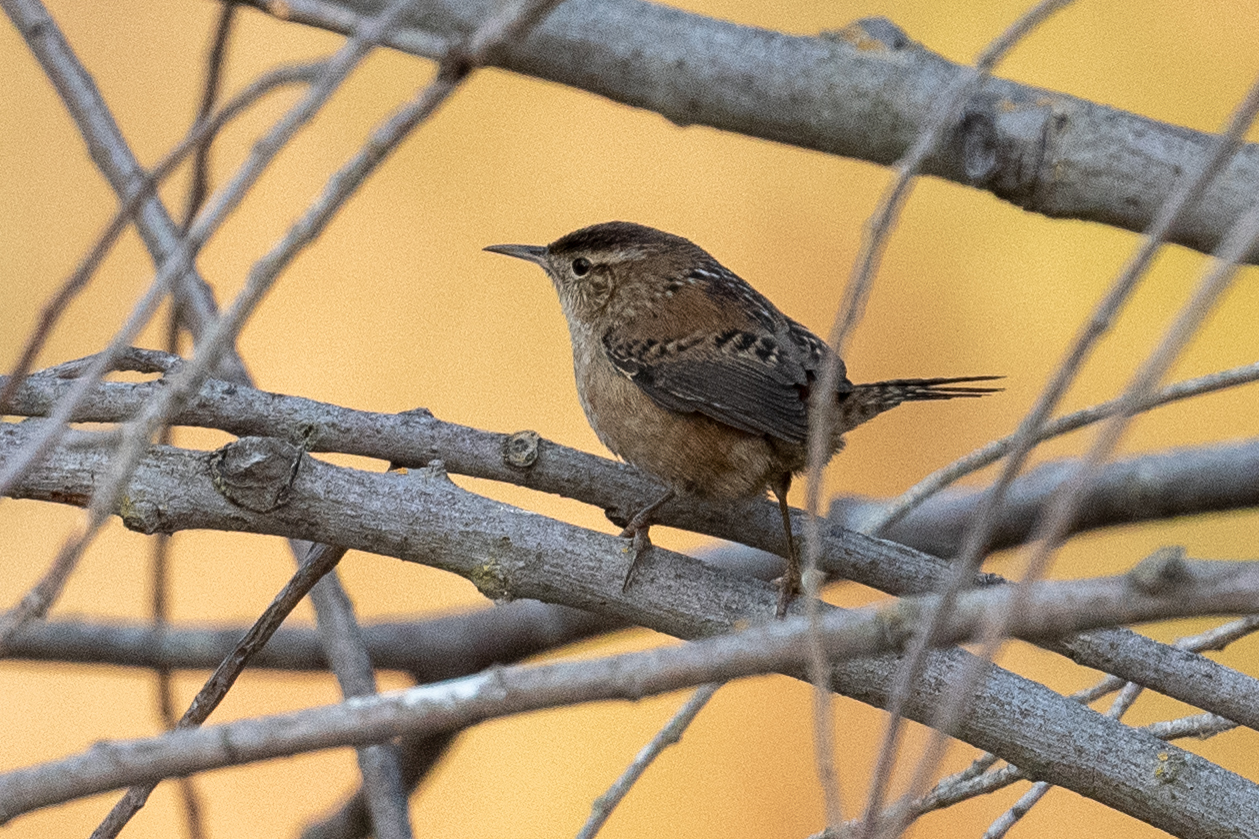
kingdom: Animalia
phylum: Chordata
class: Aves
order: Passeriformes
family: Troglodytidae
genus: Cistothorus
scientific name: Cistothorus palustris
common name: Marsh wren
